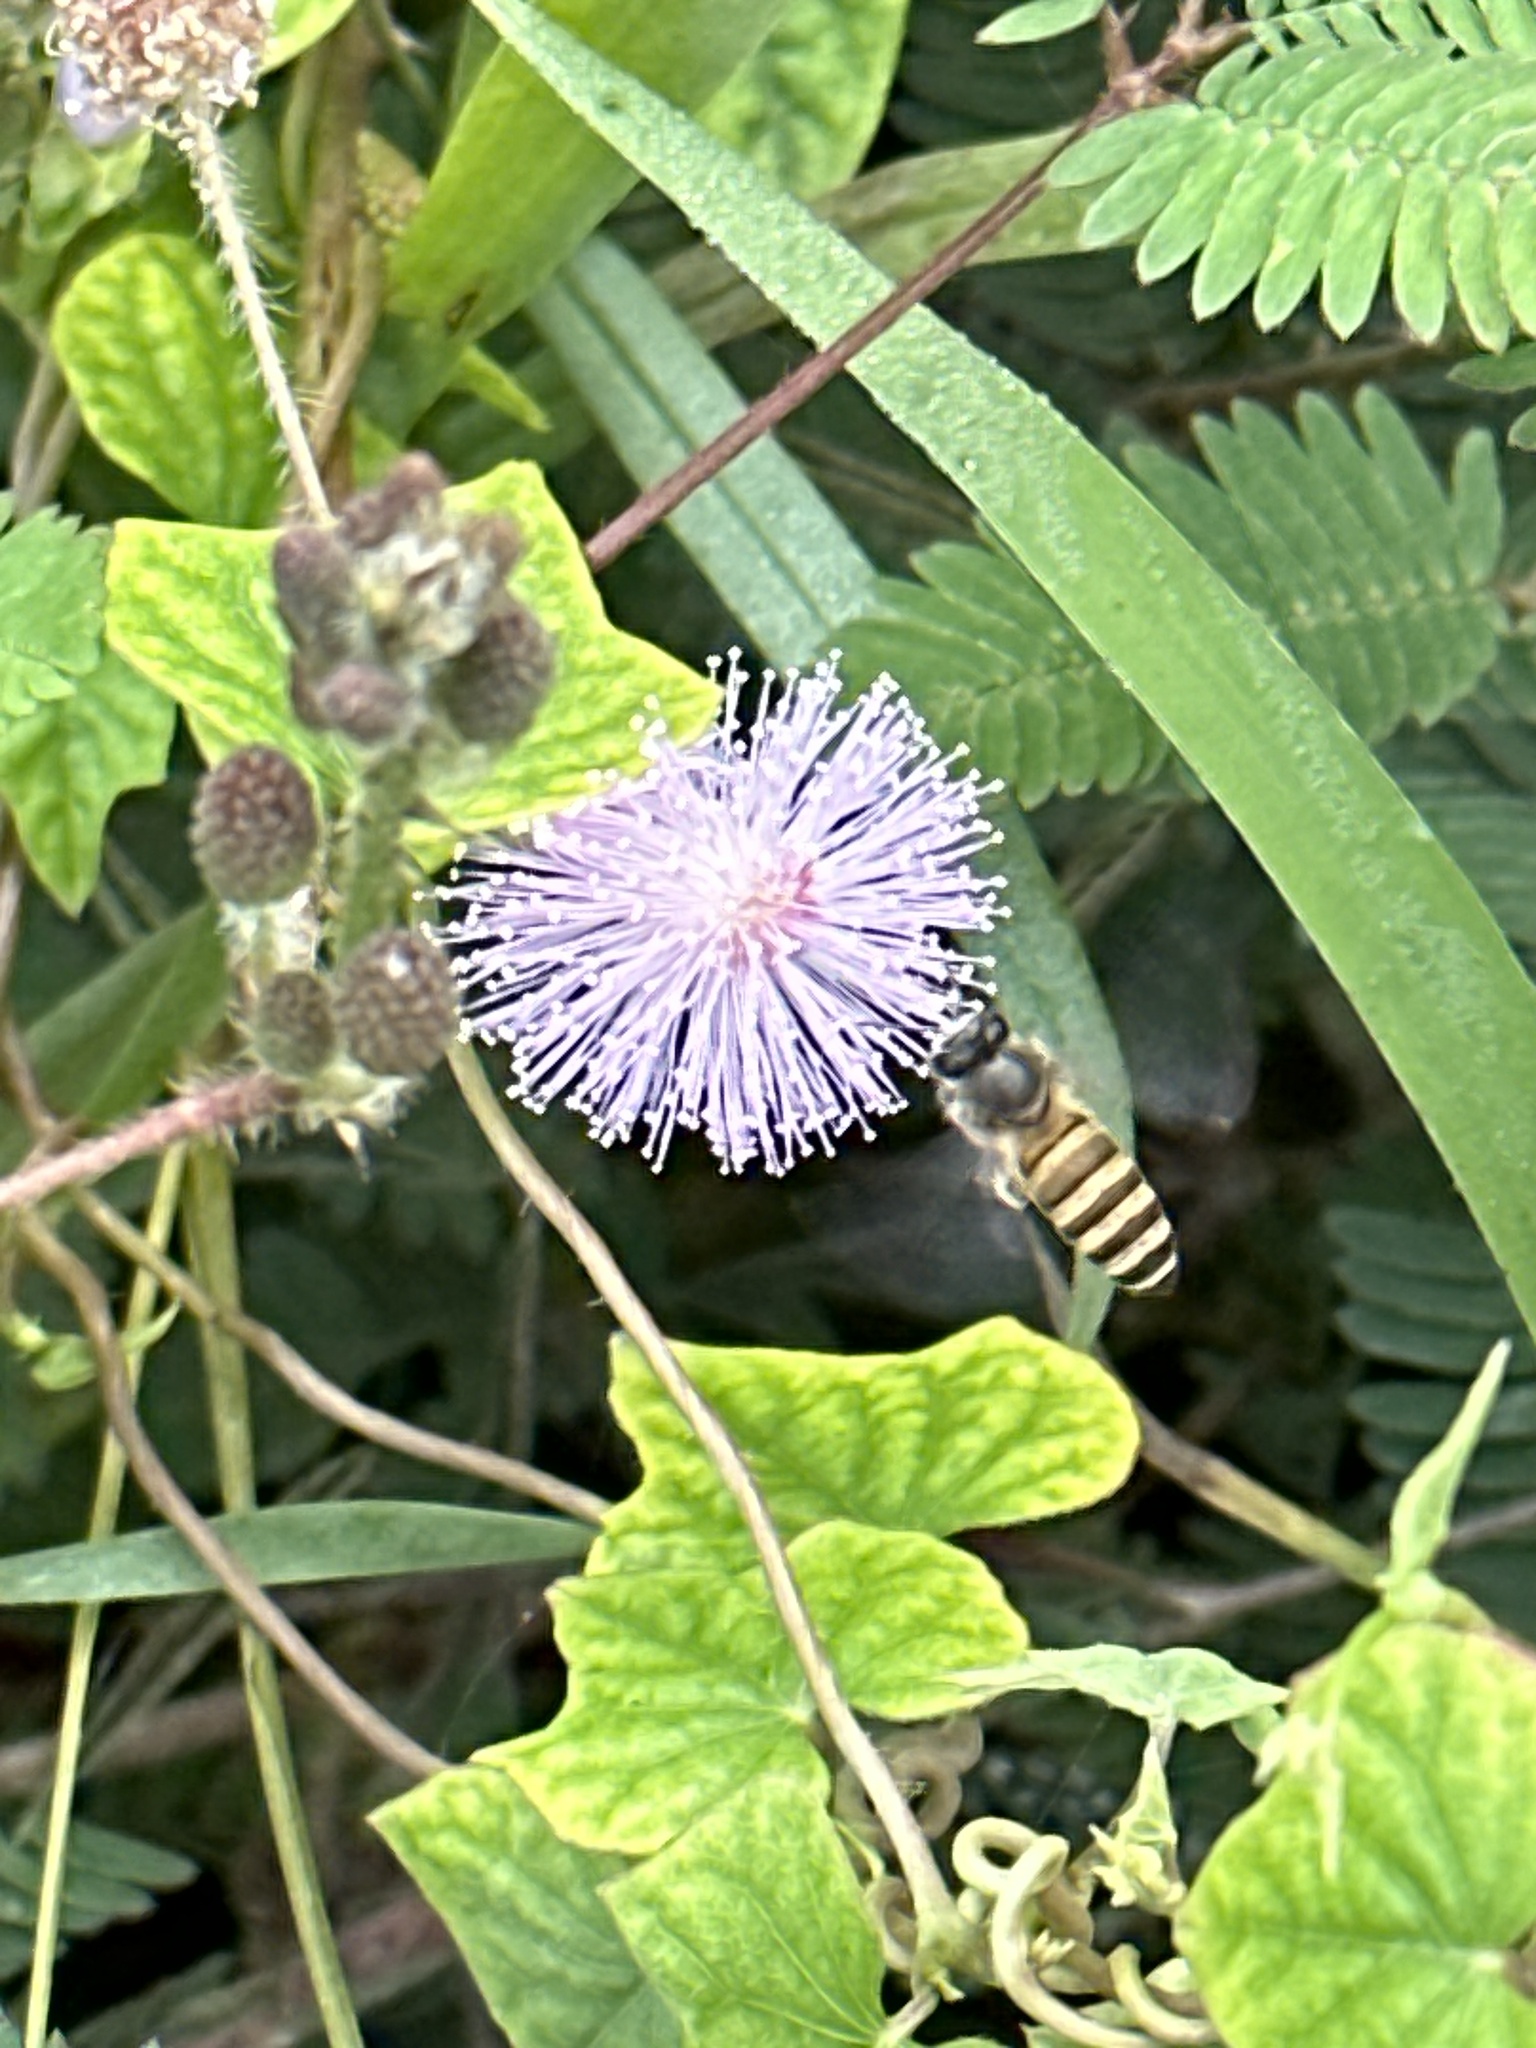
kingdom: Animalia
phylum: Arthropoda
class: Insecta
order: Hymenoptera
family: Apidae
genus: Apis
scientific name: Apis cerana
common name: Honey bee
